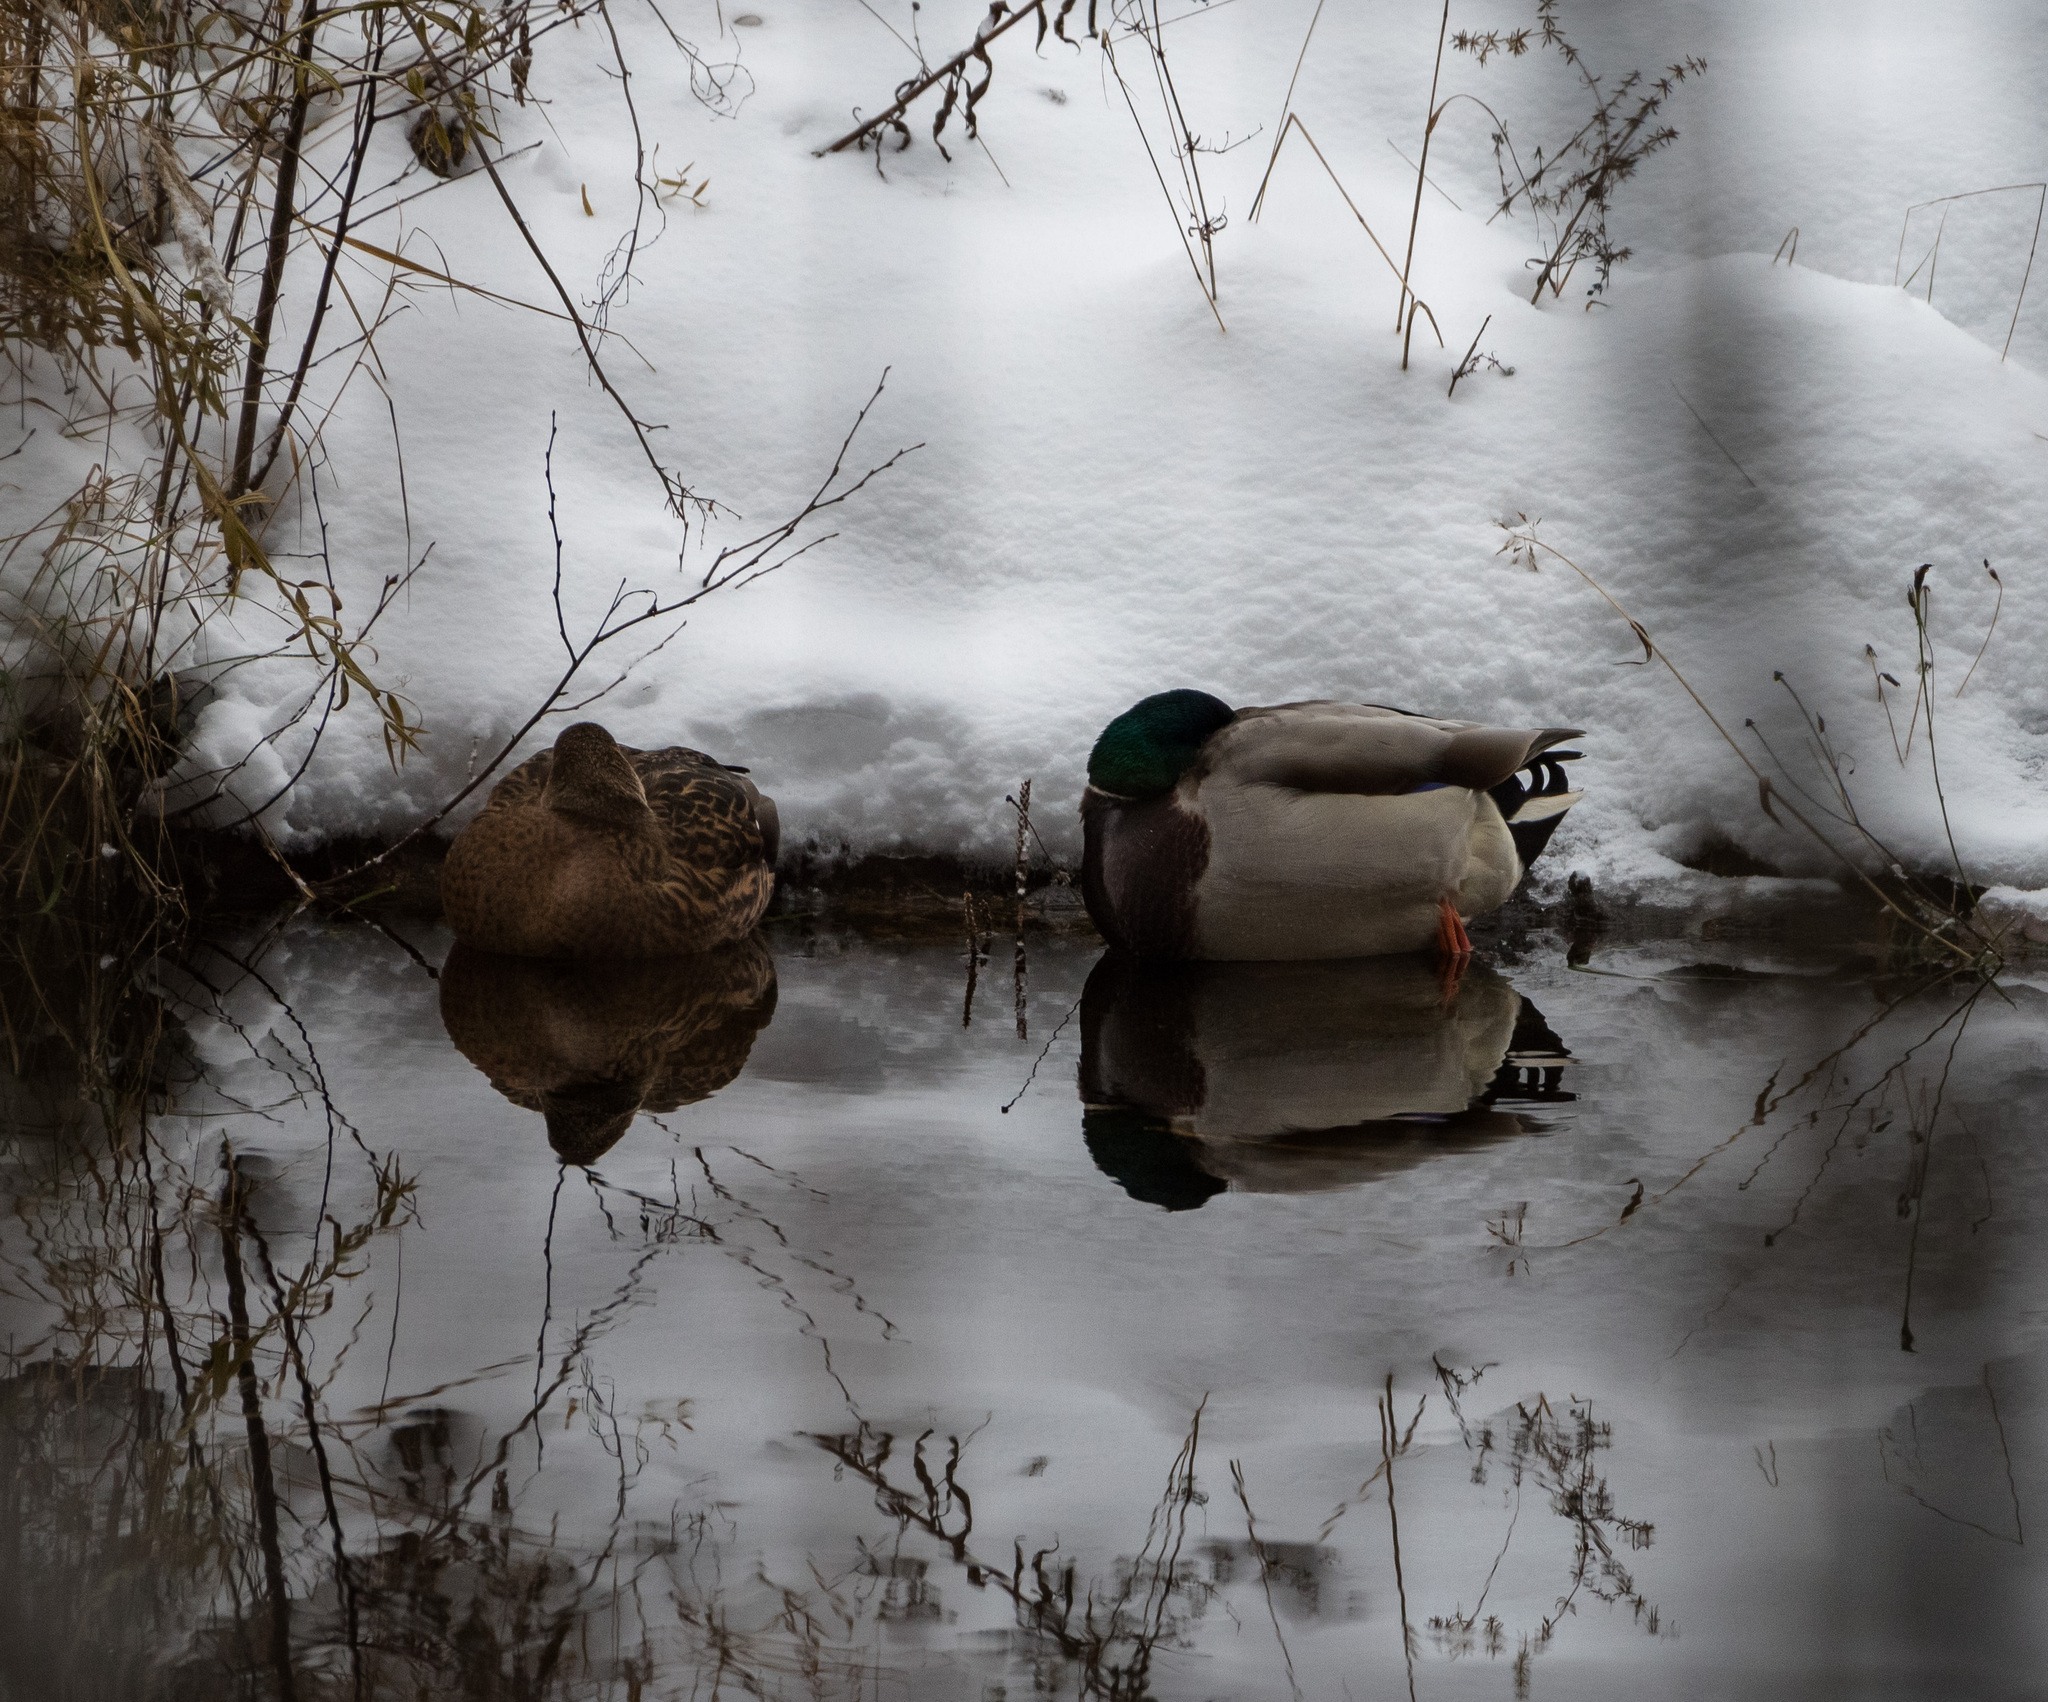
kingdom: Animalia
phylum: Chordata
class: Aves
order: Anseriformes
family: Anatidae
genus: Anas
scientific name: Anas platyrhynchos
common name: Mallard
